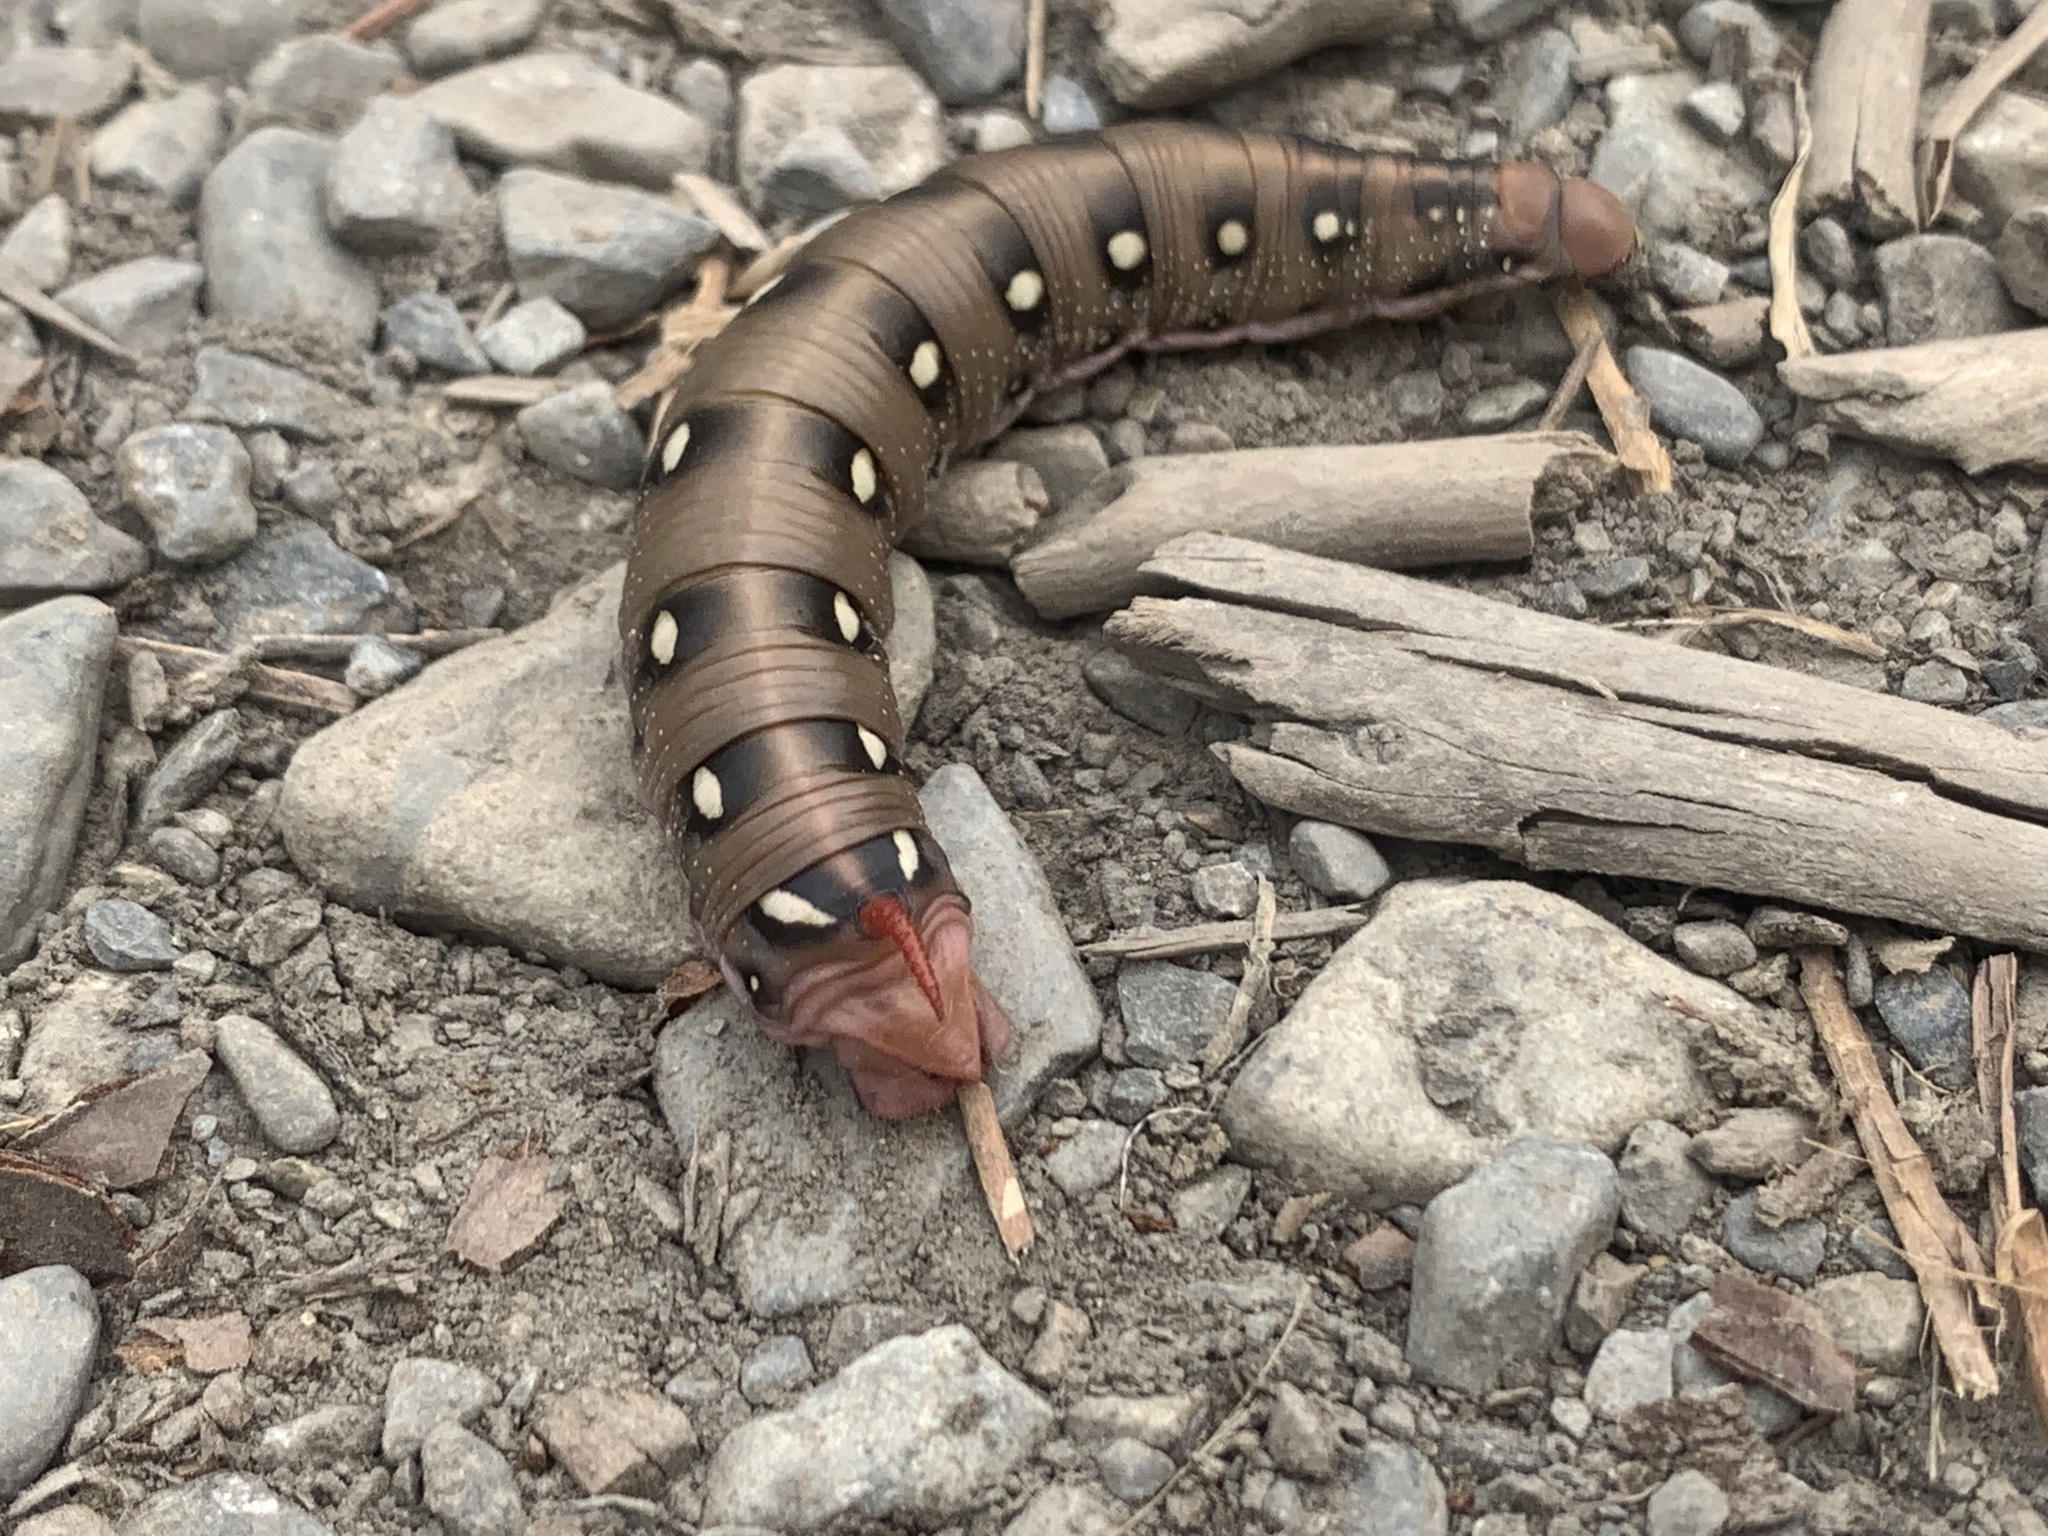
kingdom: Animalia
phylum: Arthropoda
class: Insecta
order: Lepidoptera
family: Sphingidae
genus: Hyles
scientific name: Hyles gallii
